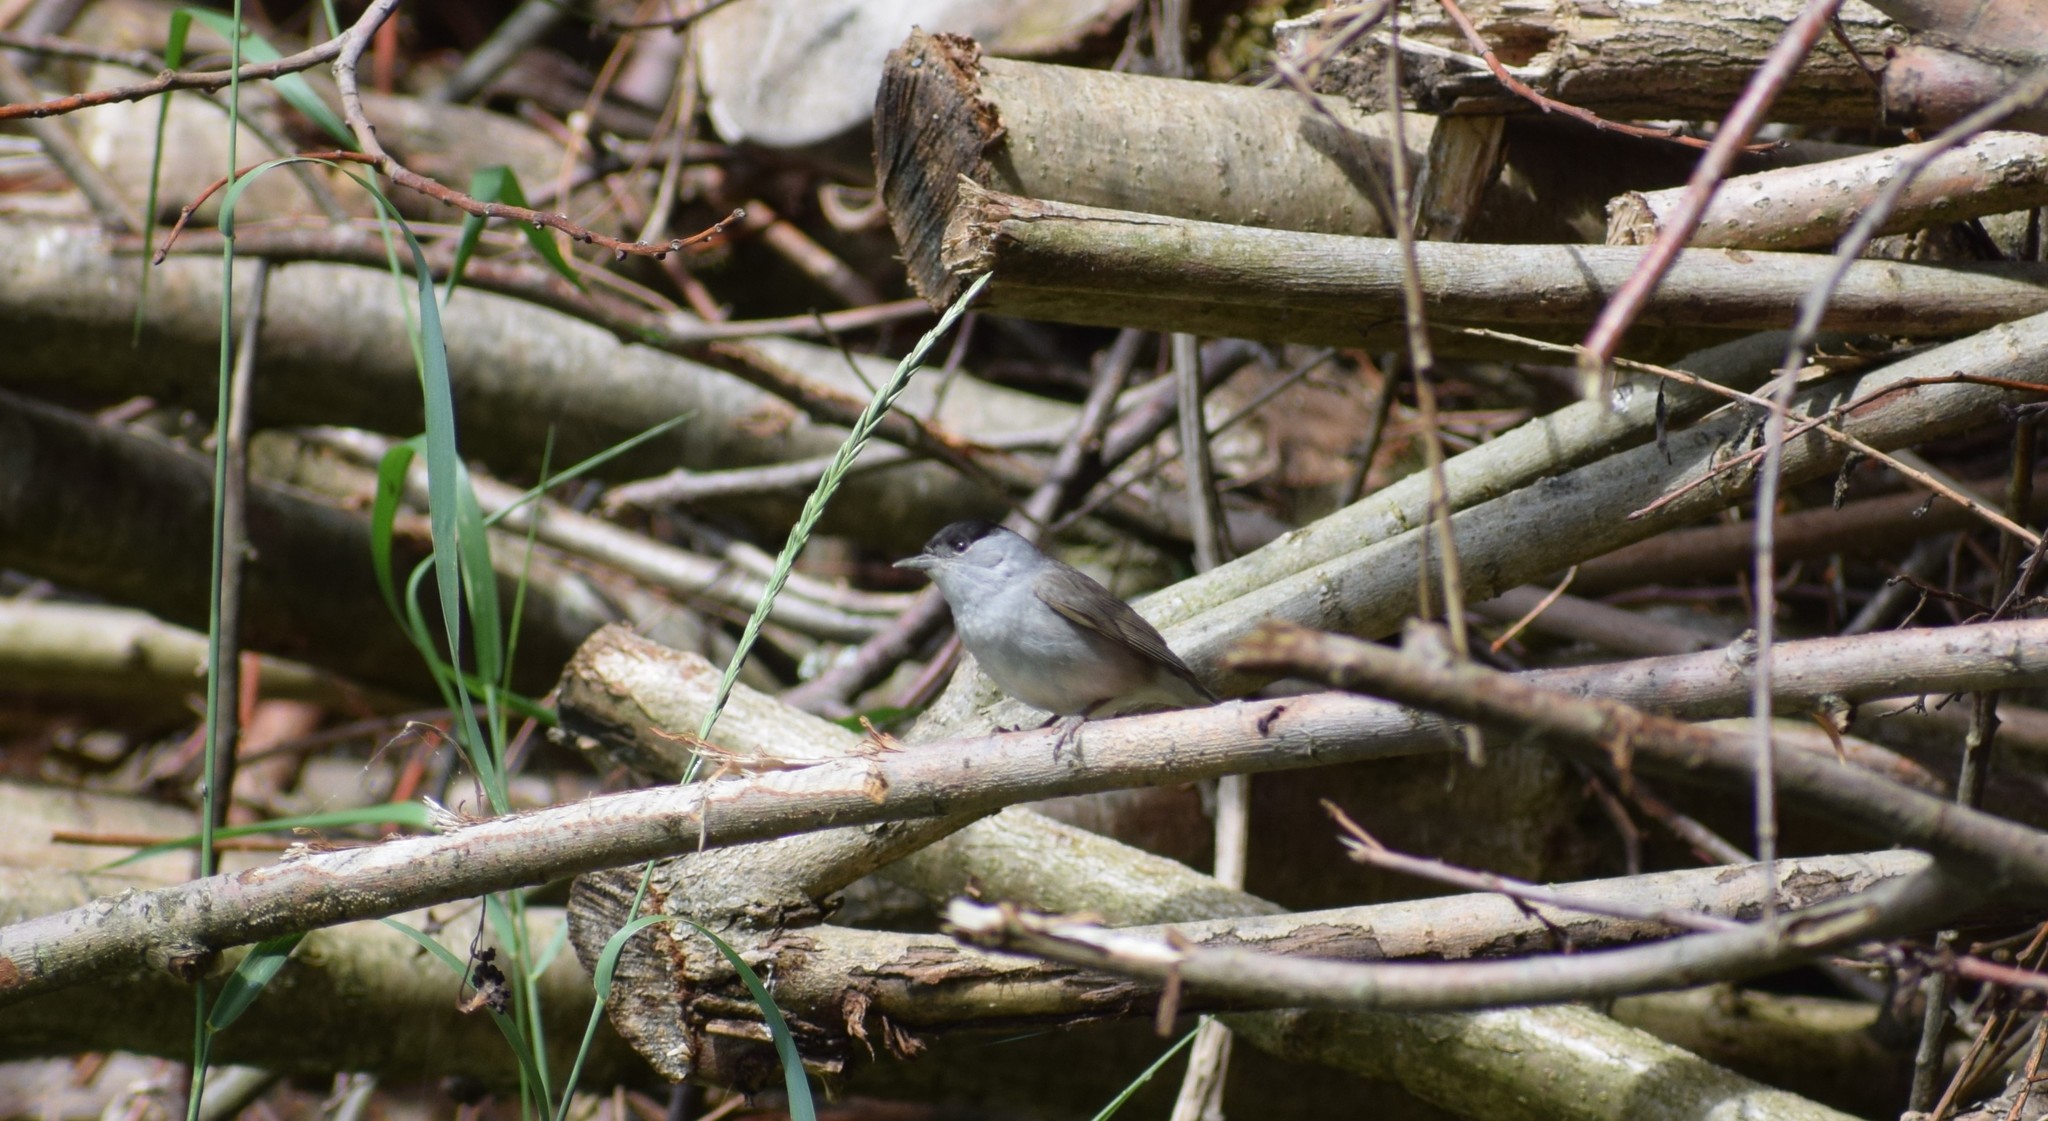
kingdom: Animalia
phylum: Chordata
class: Aves
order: Passeriformes
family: Sylviidae
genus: Sylvia
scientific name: Sylvia atricapilla
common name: Eurasian blackcap
